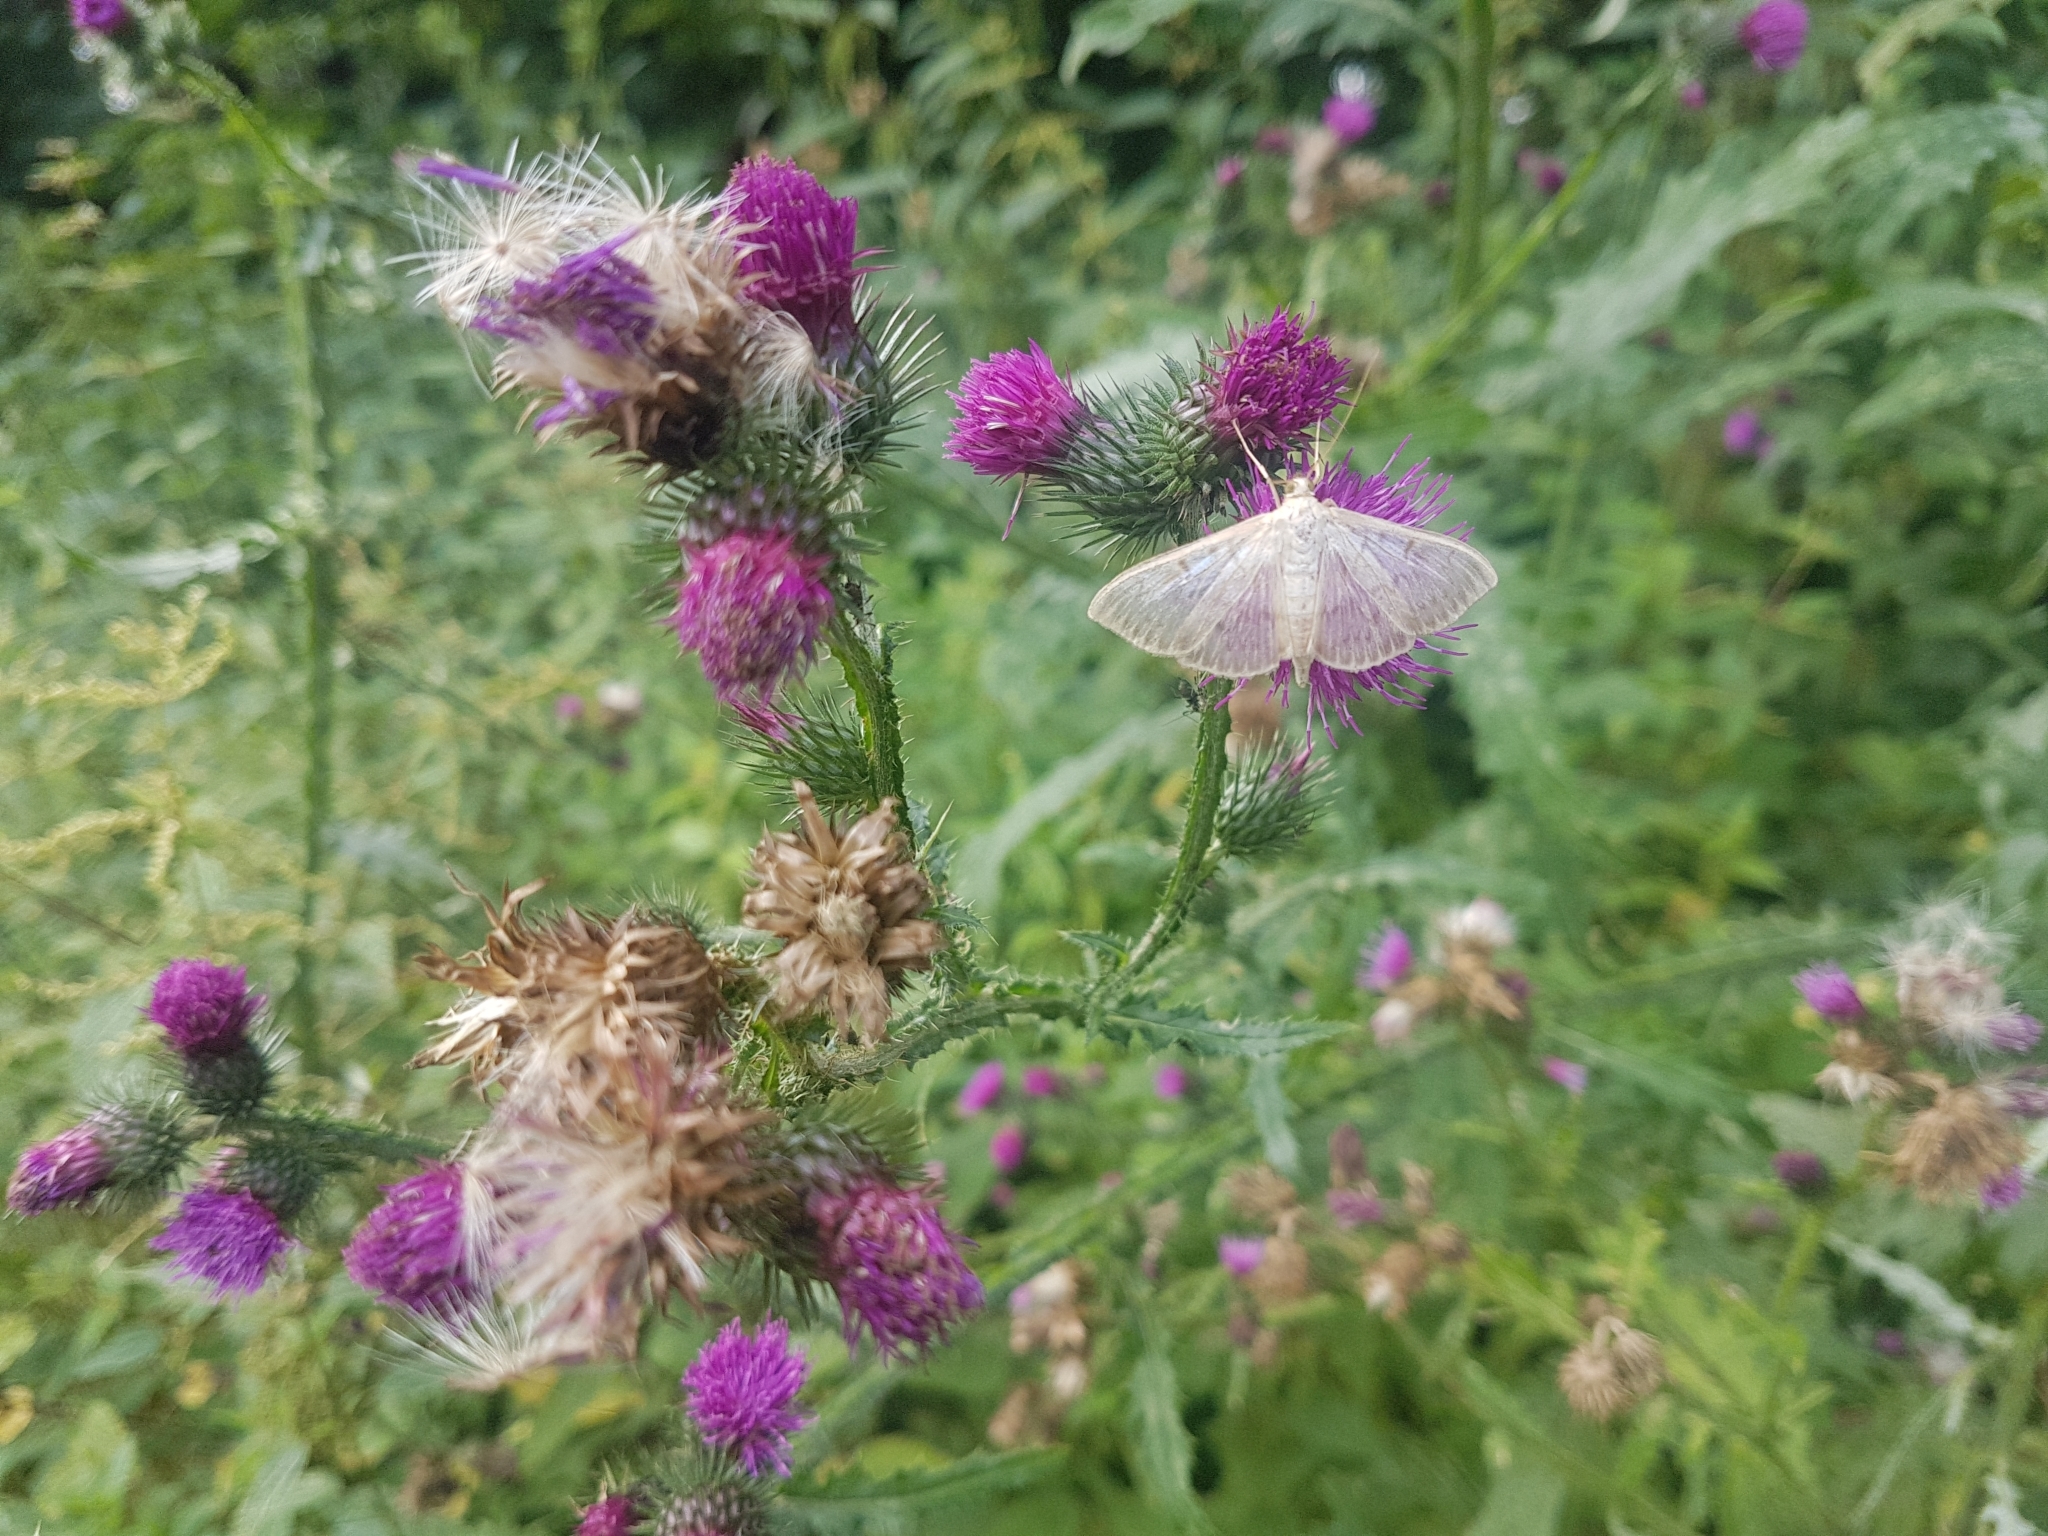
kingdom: Plantae
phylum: Tracheophyta
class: Magnoliopsida
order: Asterales
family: Asteraceae
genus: Carduus
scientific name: Carduus crispus
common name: Welted thistle
